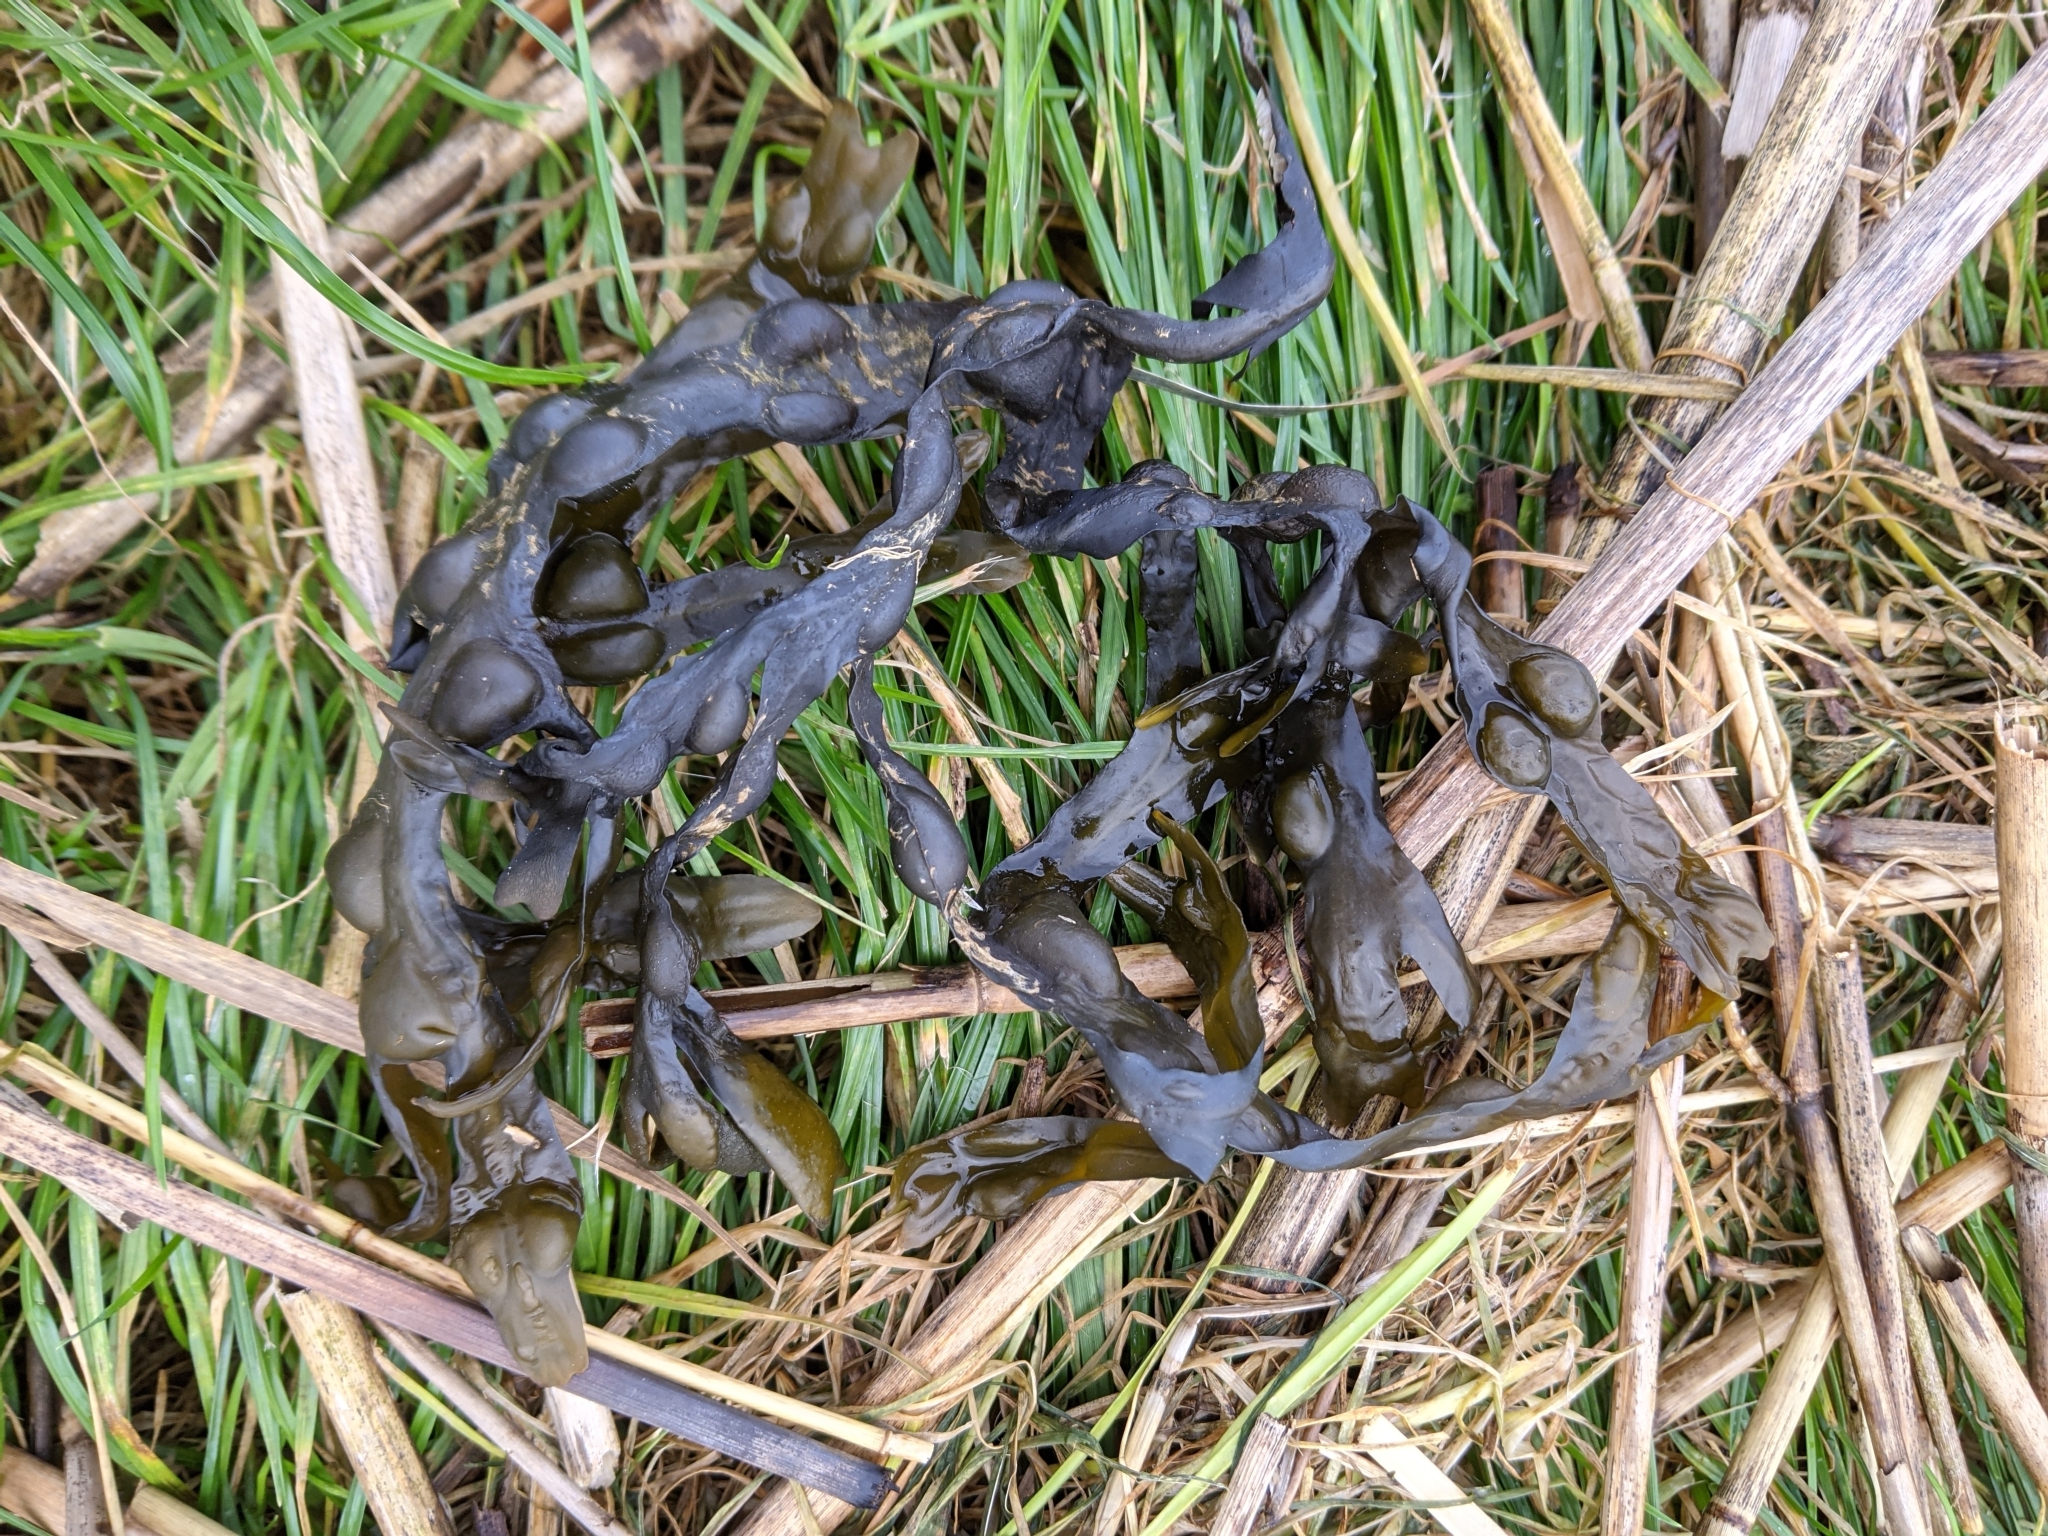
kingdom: Chromista
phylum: Ochrophyta
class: Phaeophyceae
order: Fucales
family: Fucaceae
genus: Fucus
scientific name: Fucus vesiculosus
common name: Bladder wrack
